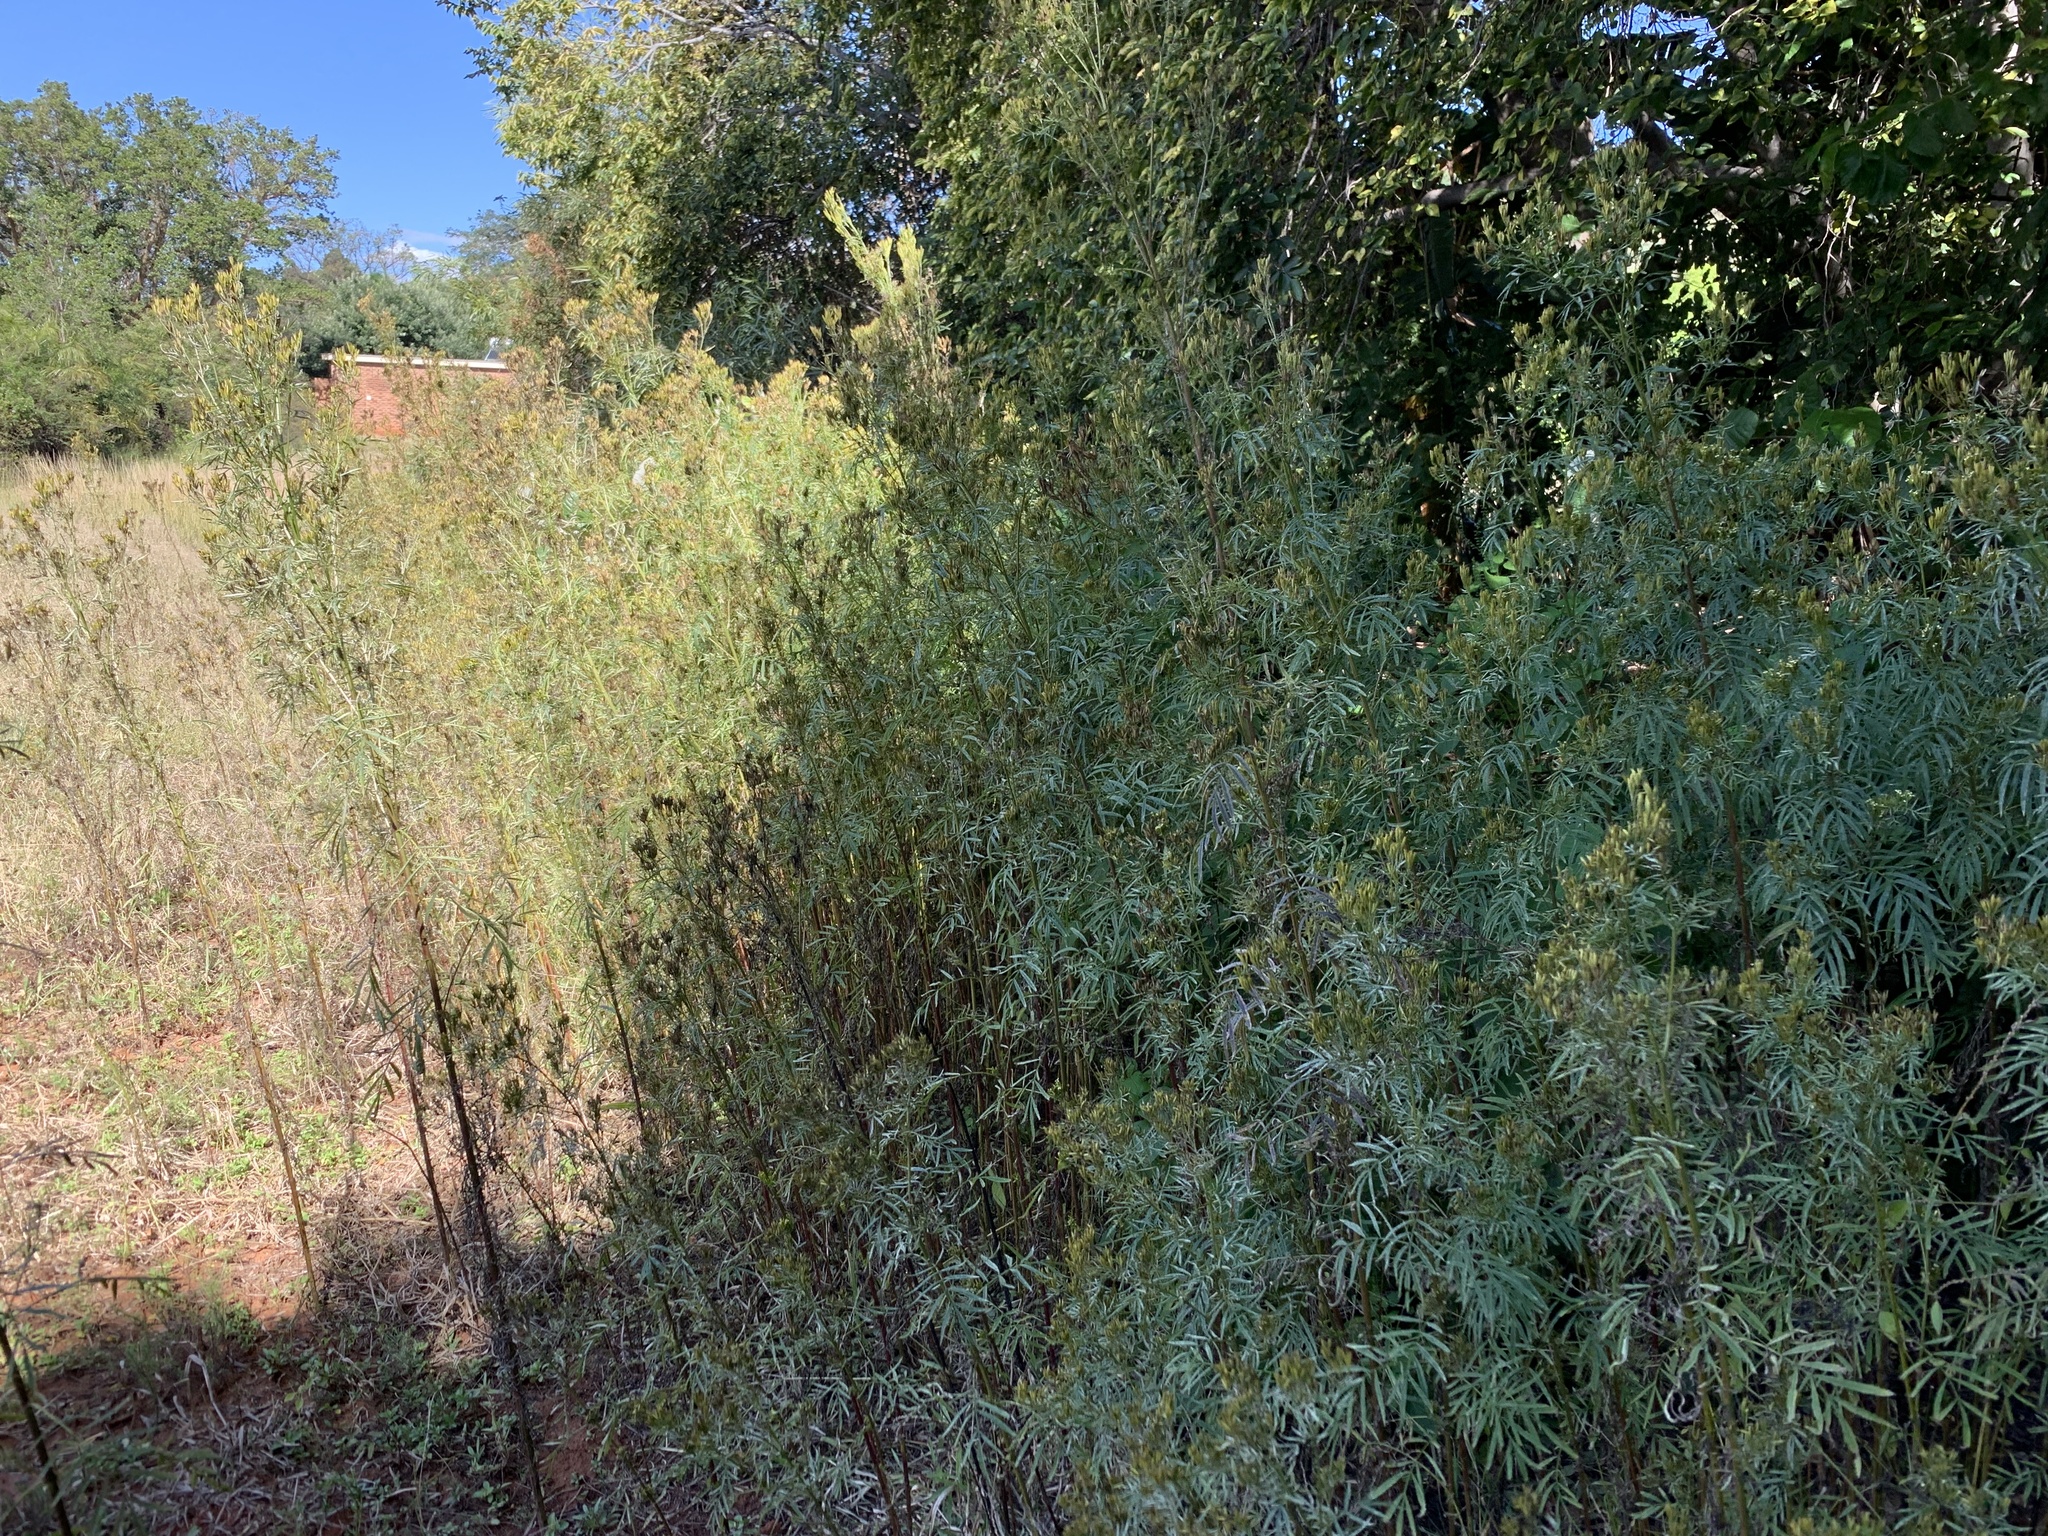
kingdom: Plantae
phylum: Tracheophyta
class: Magnoliopsida
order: Asterales
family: Asteraceae
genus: Tagetes
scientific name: Tagetes minuta
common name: Muster john henry
